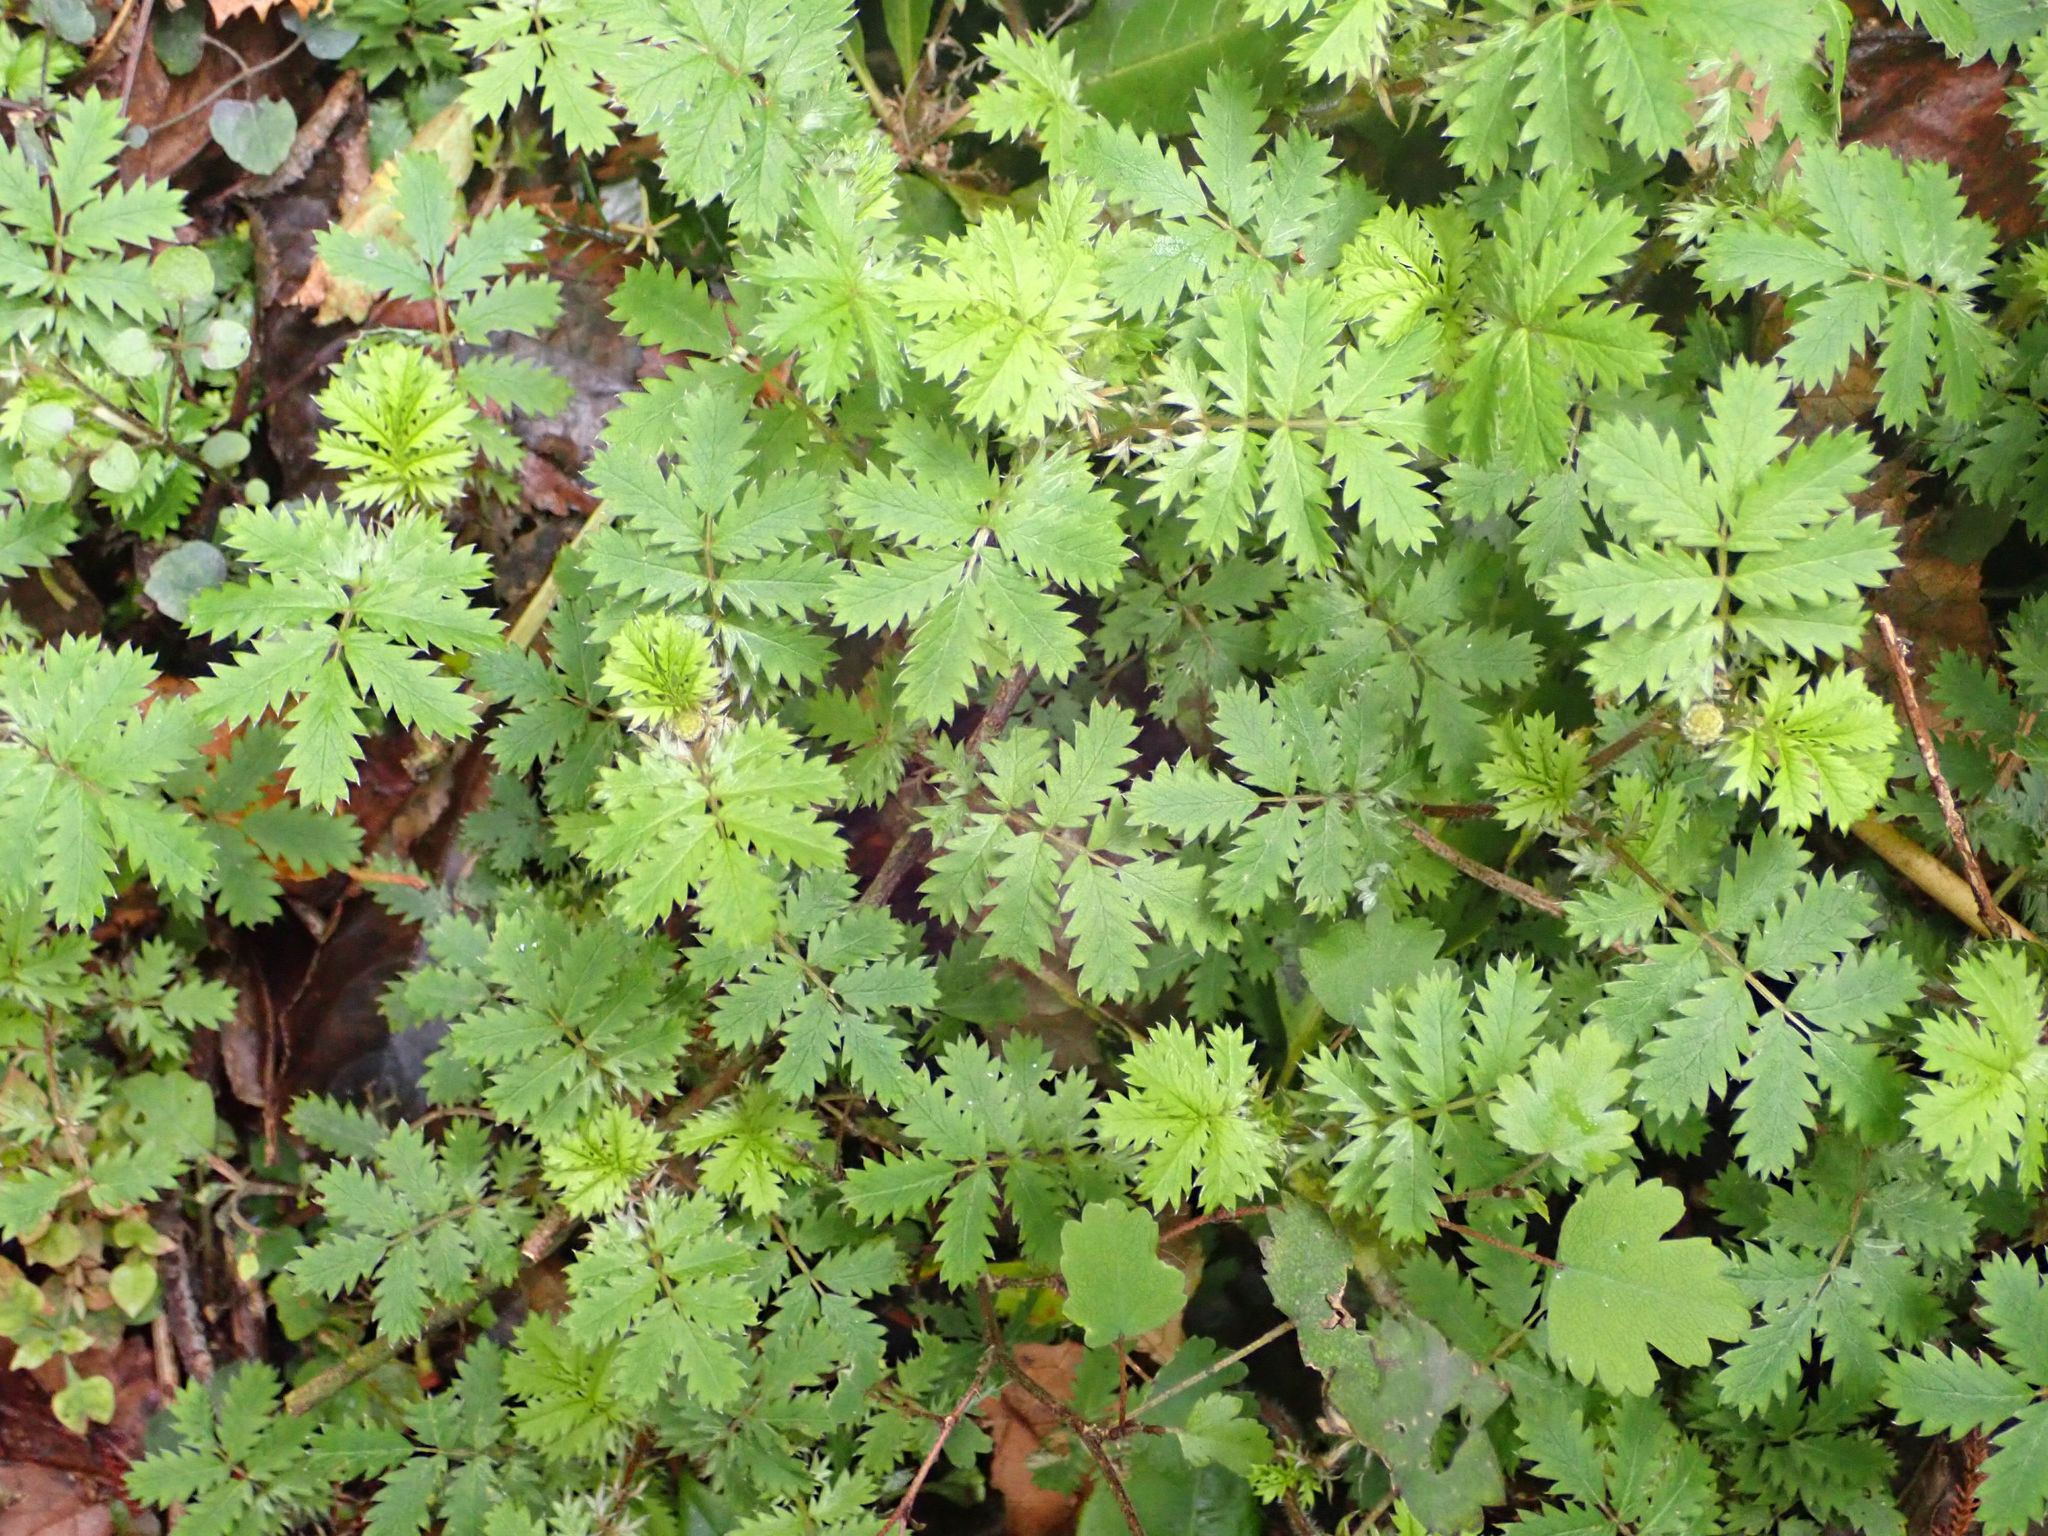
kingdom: Plantae
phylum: Tracheophyta
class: Magnoliopsida
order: Rosales
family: Rosaceae
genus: Acaena
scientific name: Acaena anserinifolia
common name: Bronze pirri-pirri-bur
